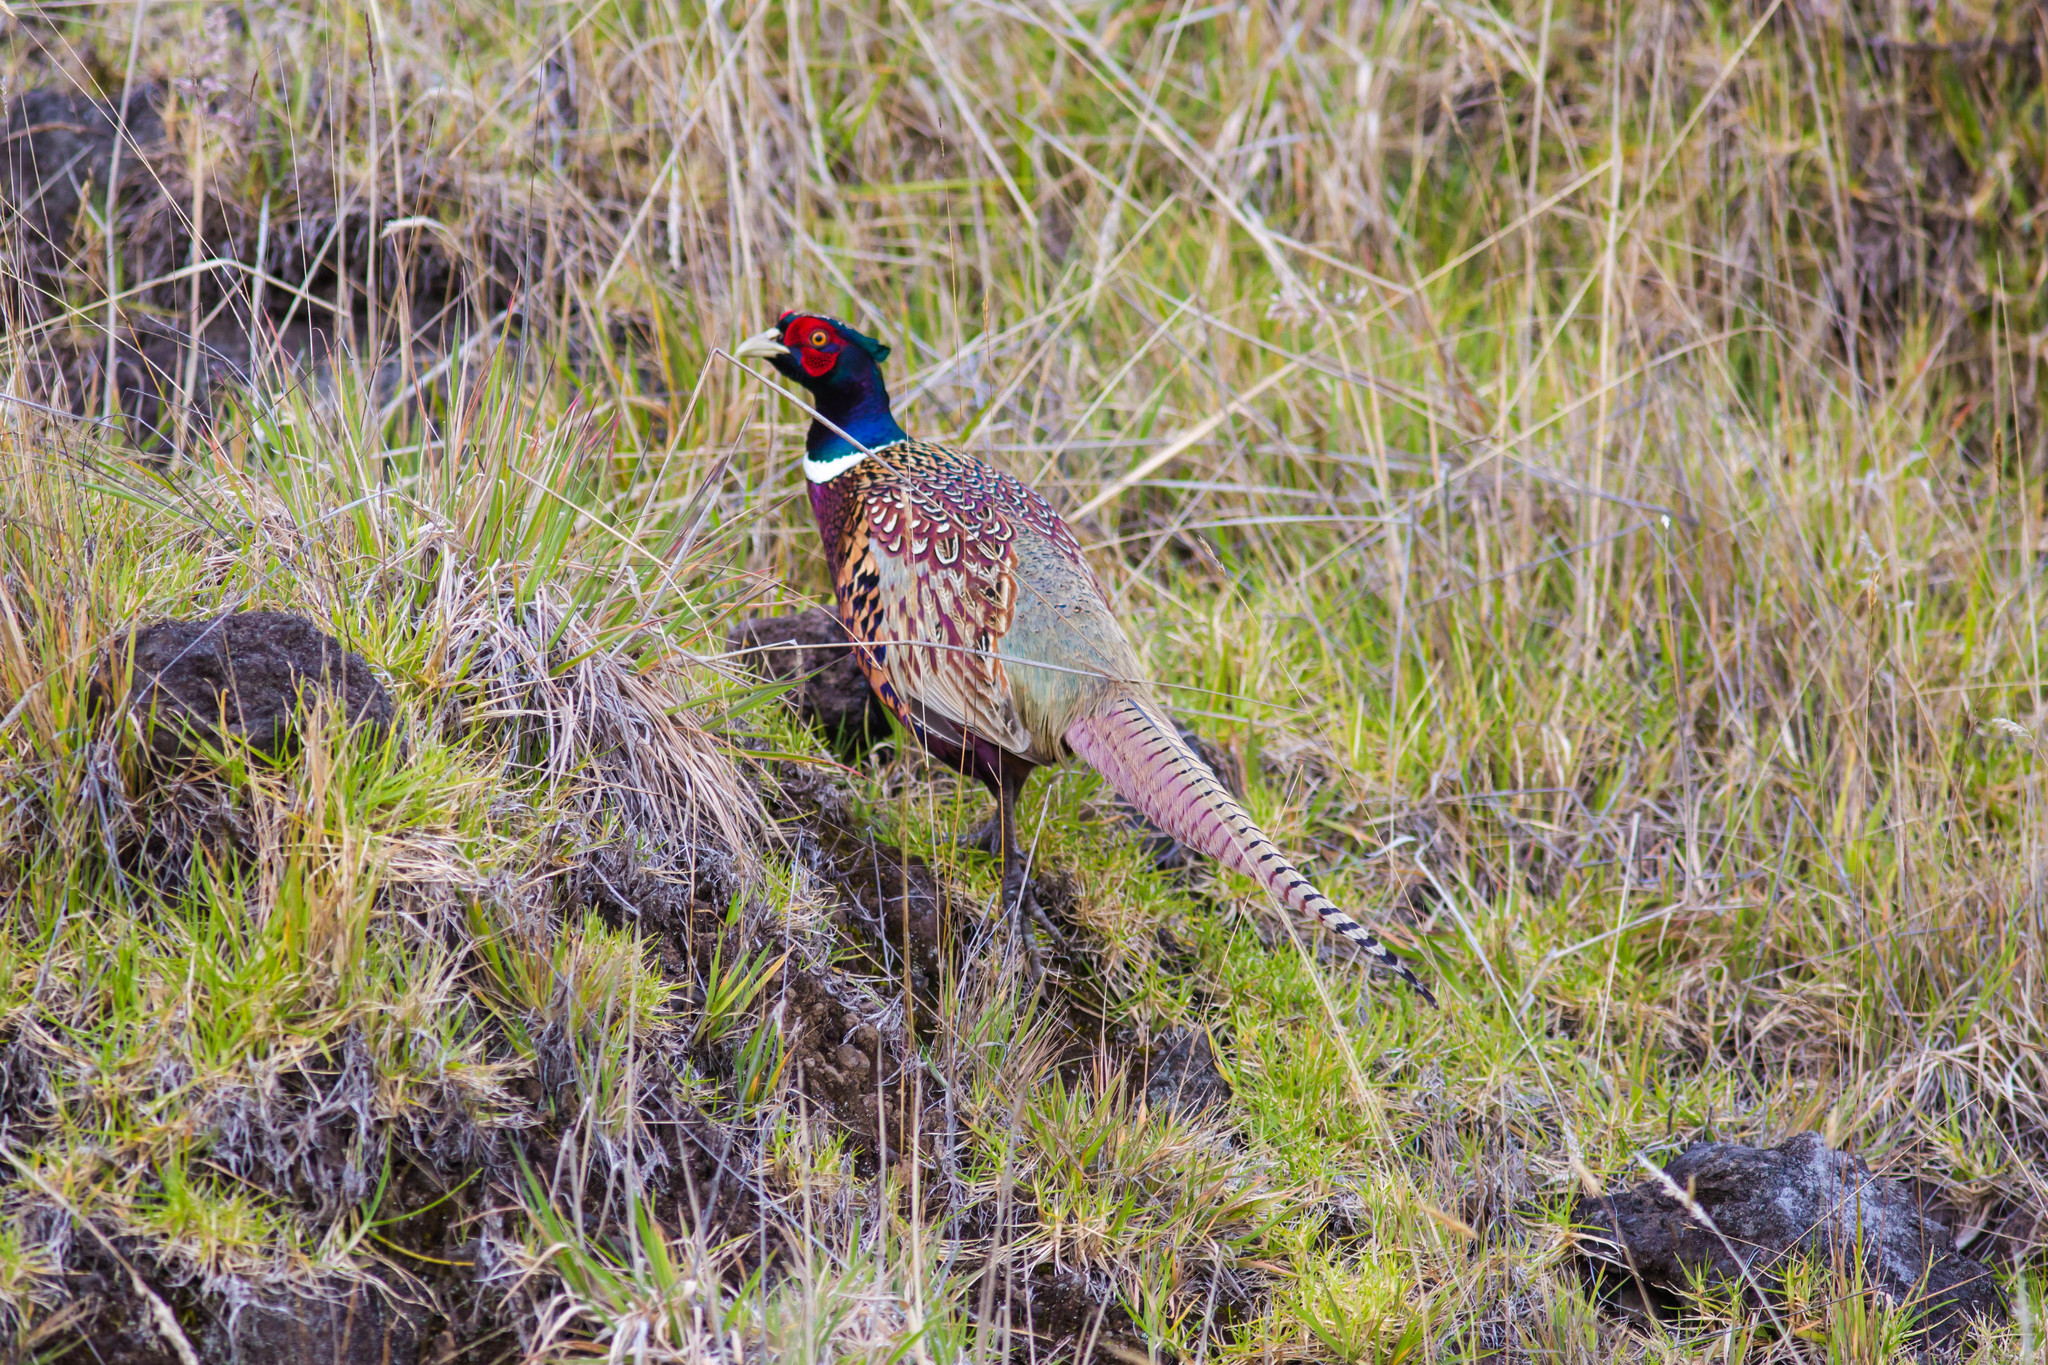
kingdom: Animalia
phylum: Chordata
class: Aves
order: Galliformes
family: Phasianidae
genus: Phasianus
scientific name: Phasianus colchicus
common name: Common pheasant
